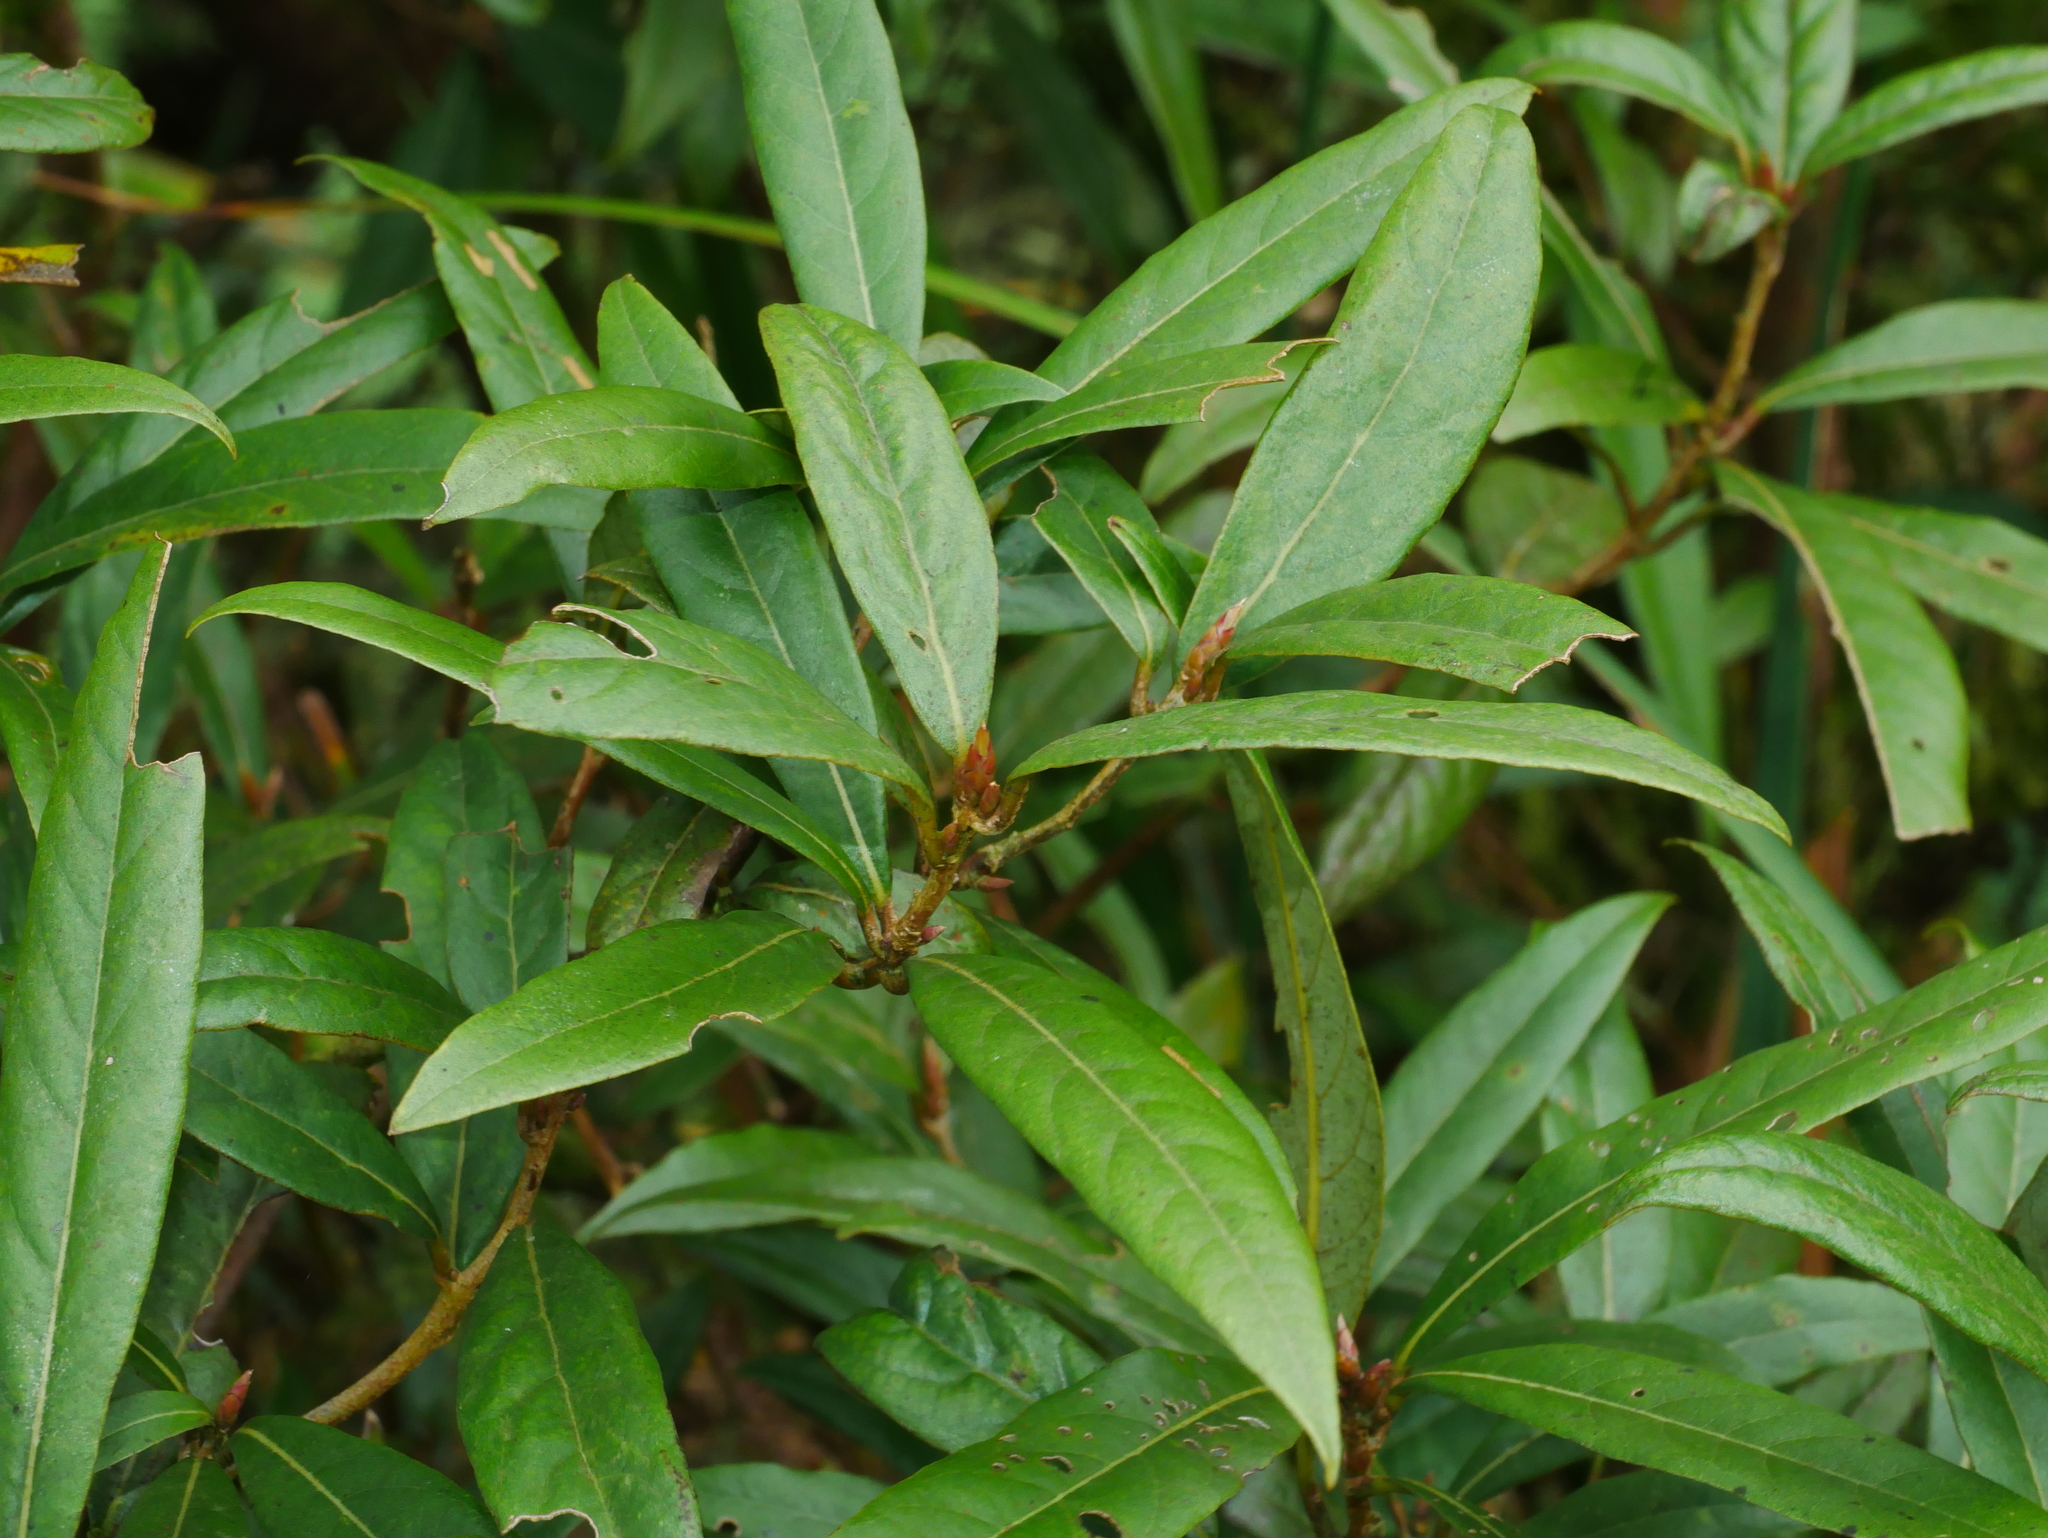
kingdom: Plantae
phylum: Tracheophyta
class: Magnoliopsida
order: Laurales
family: Lauraceae
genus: Litsea
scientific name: Litsea morrisonensis
